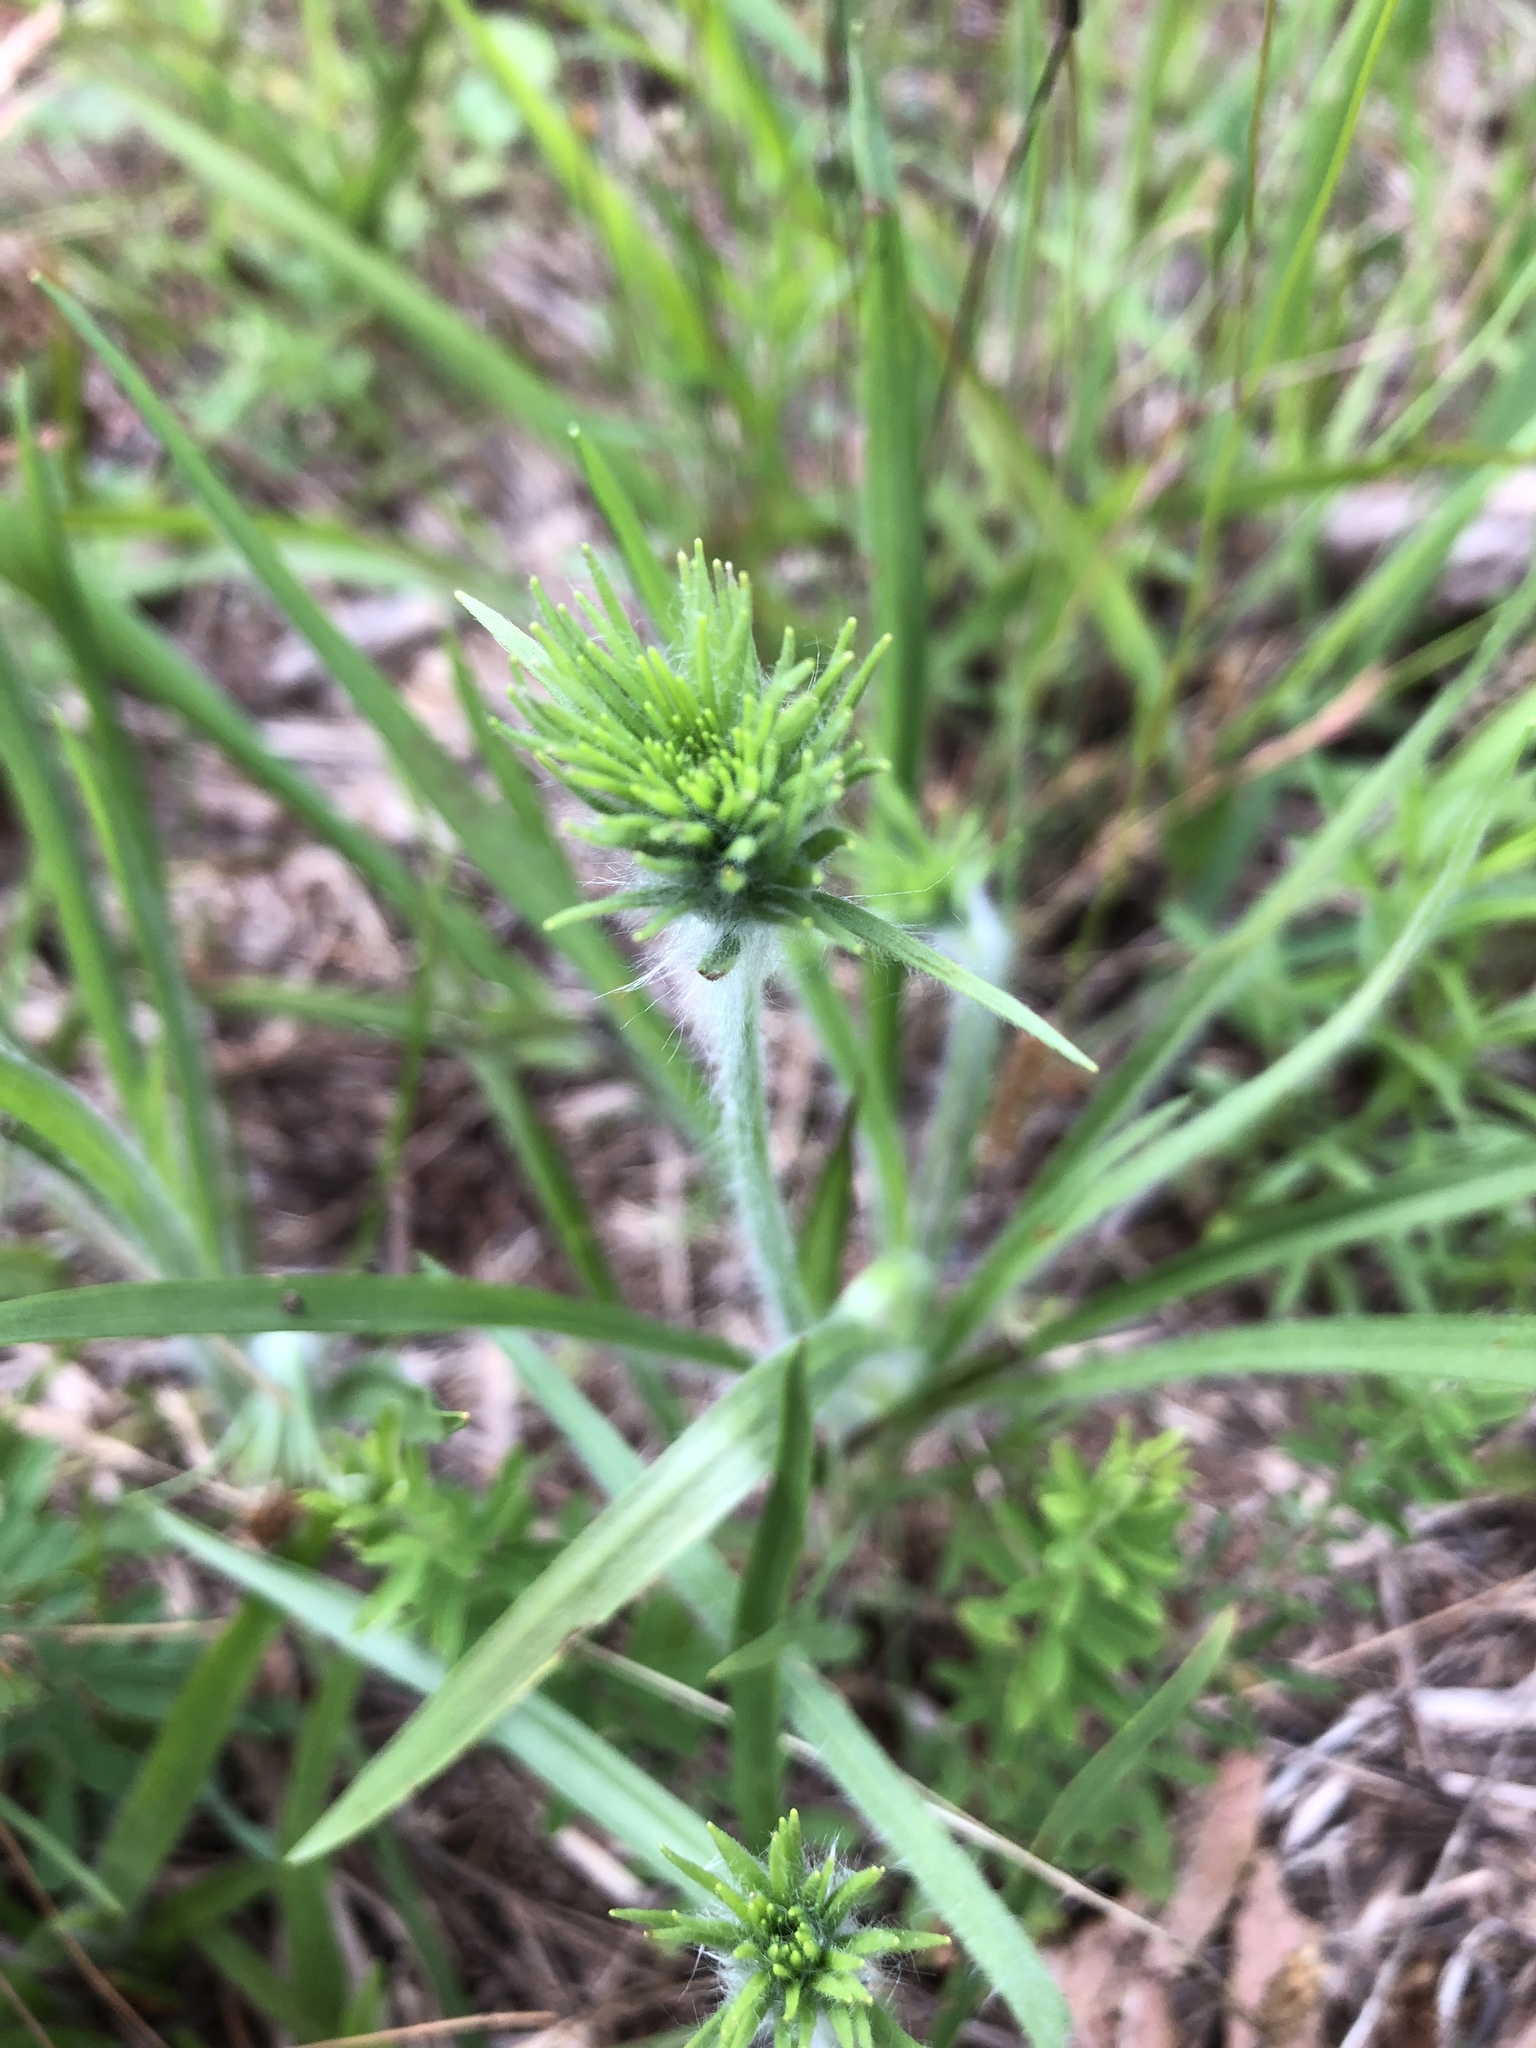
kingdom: Plantae
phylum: Tracheophyta
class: Magnoliopsida
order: Lamiales
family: Plantaginaceae
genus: Plantago
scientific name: Plantago aristata
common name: Bracted plantain
